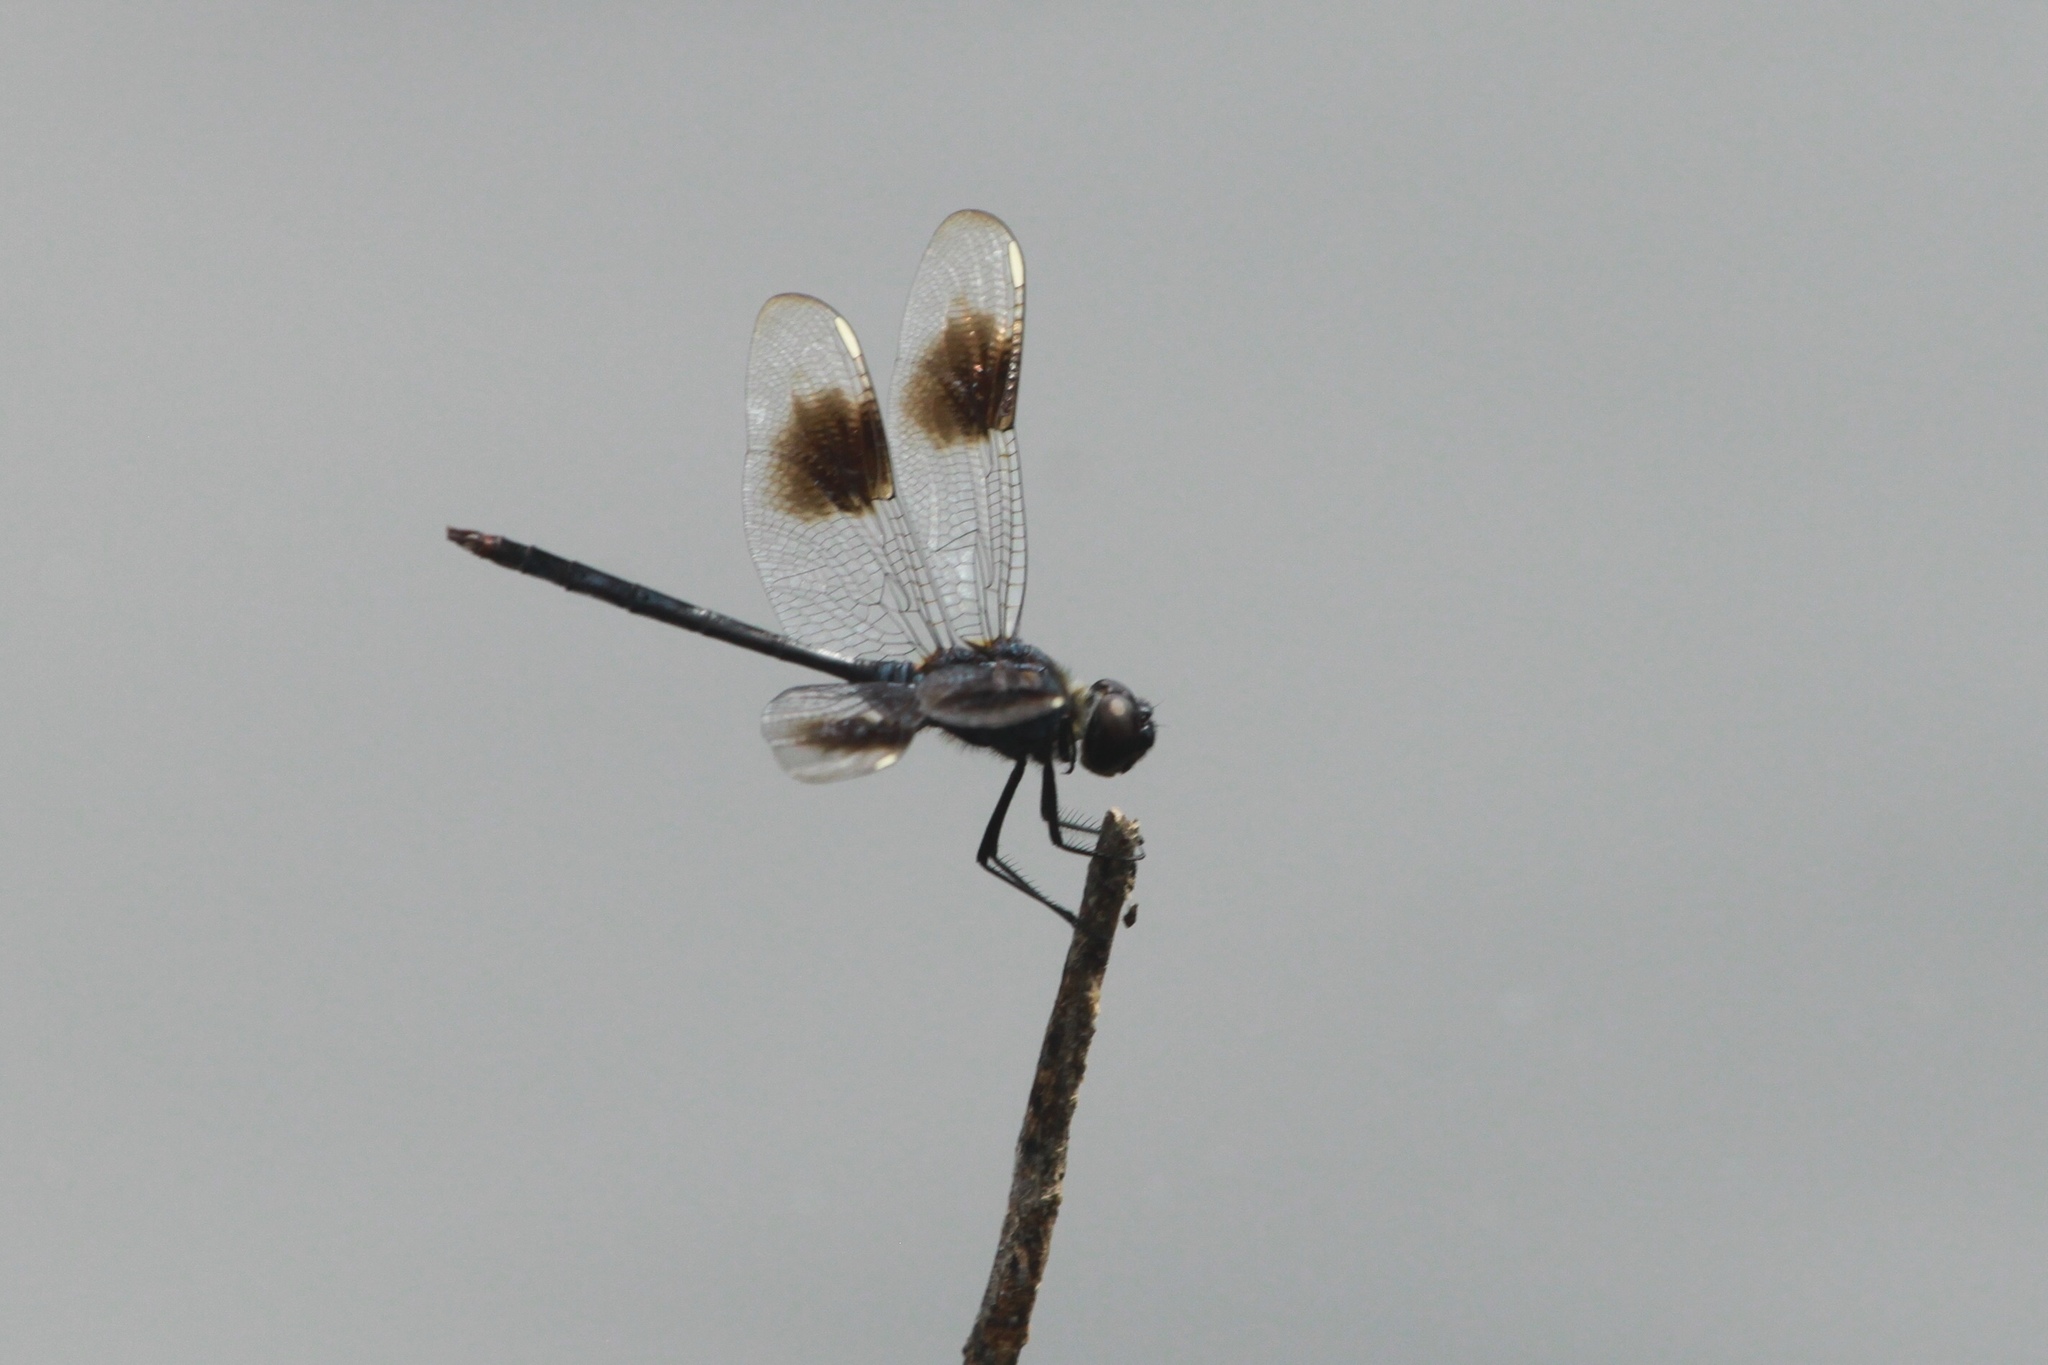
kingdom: Animalia
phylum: Arthropoda
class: Insecta
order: Odonata
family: Libellulidae
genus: Brachymesia
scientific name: Brachymesia gravida
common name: Four-spotted pennant
